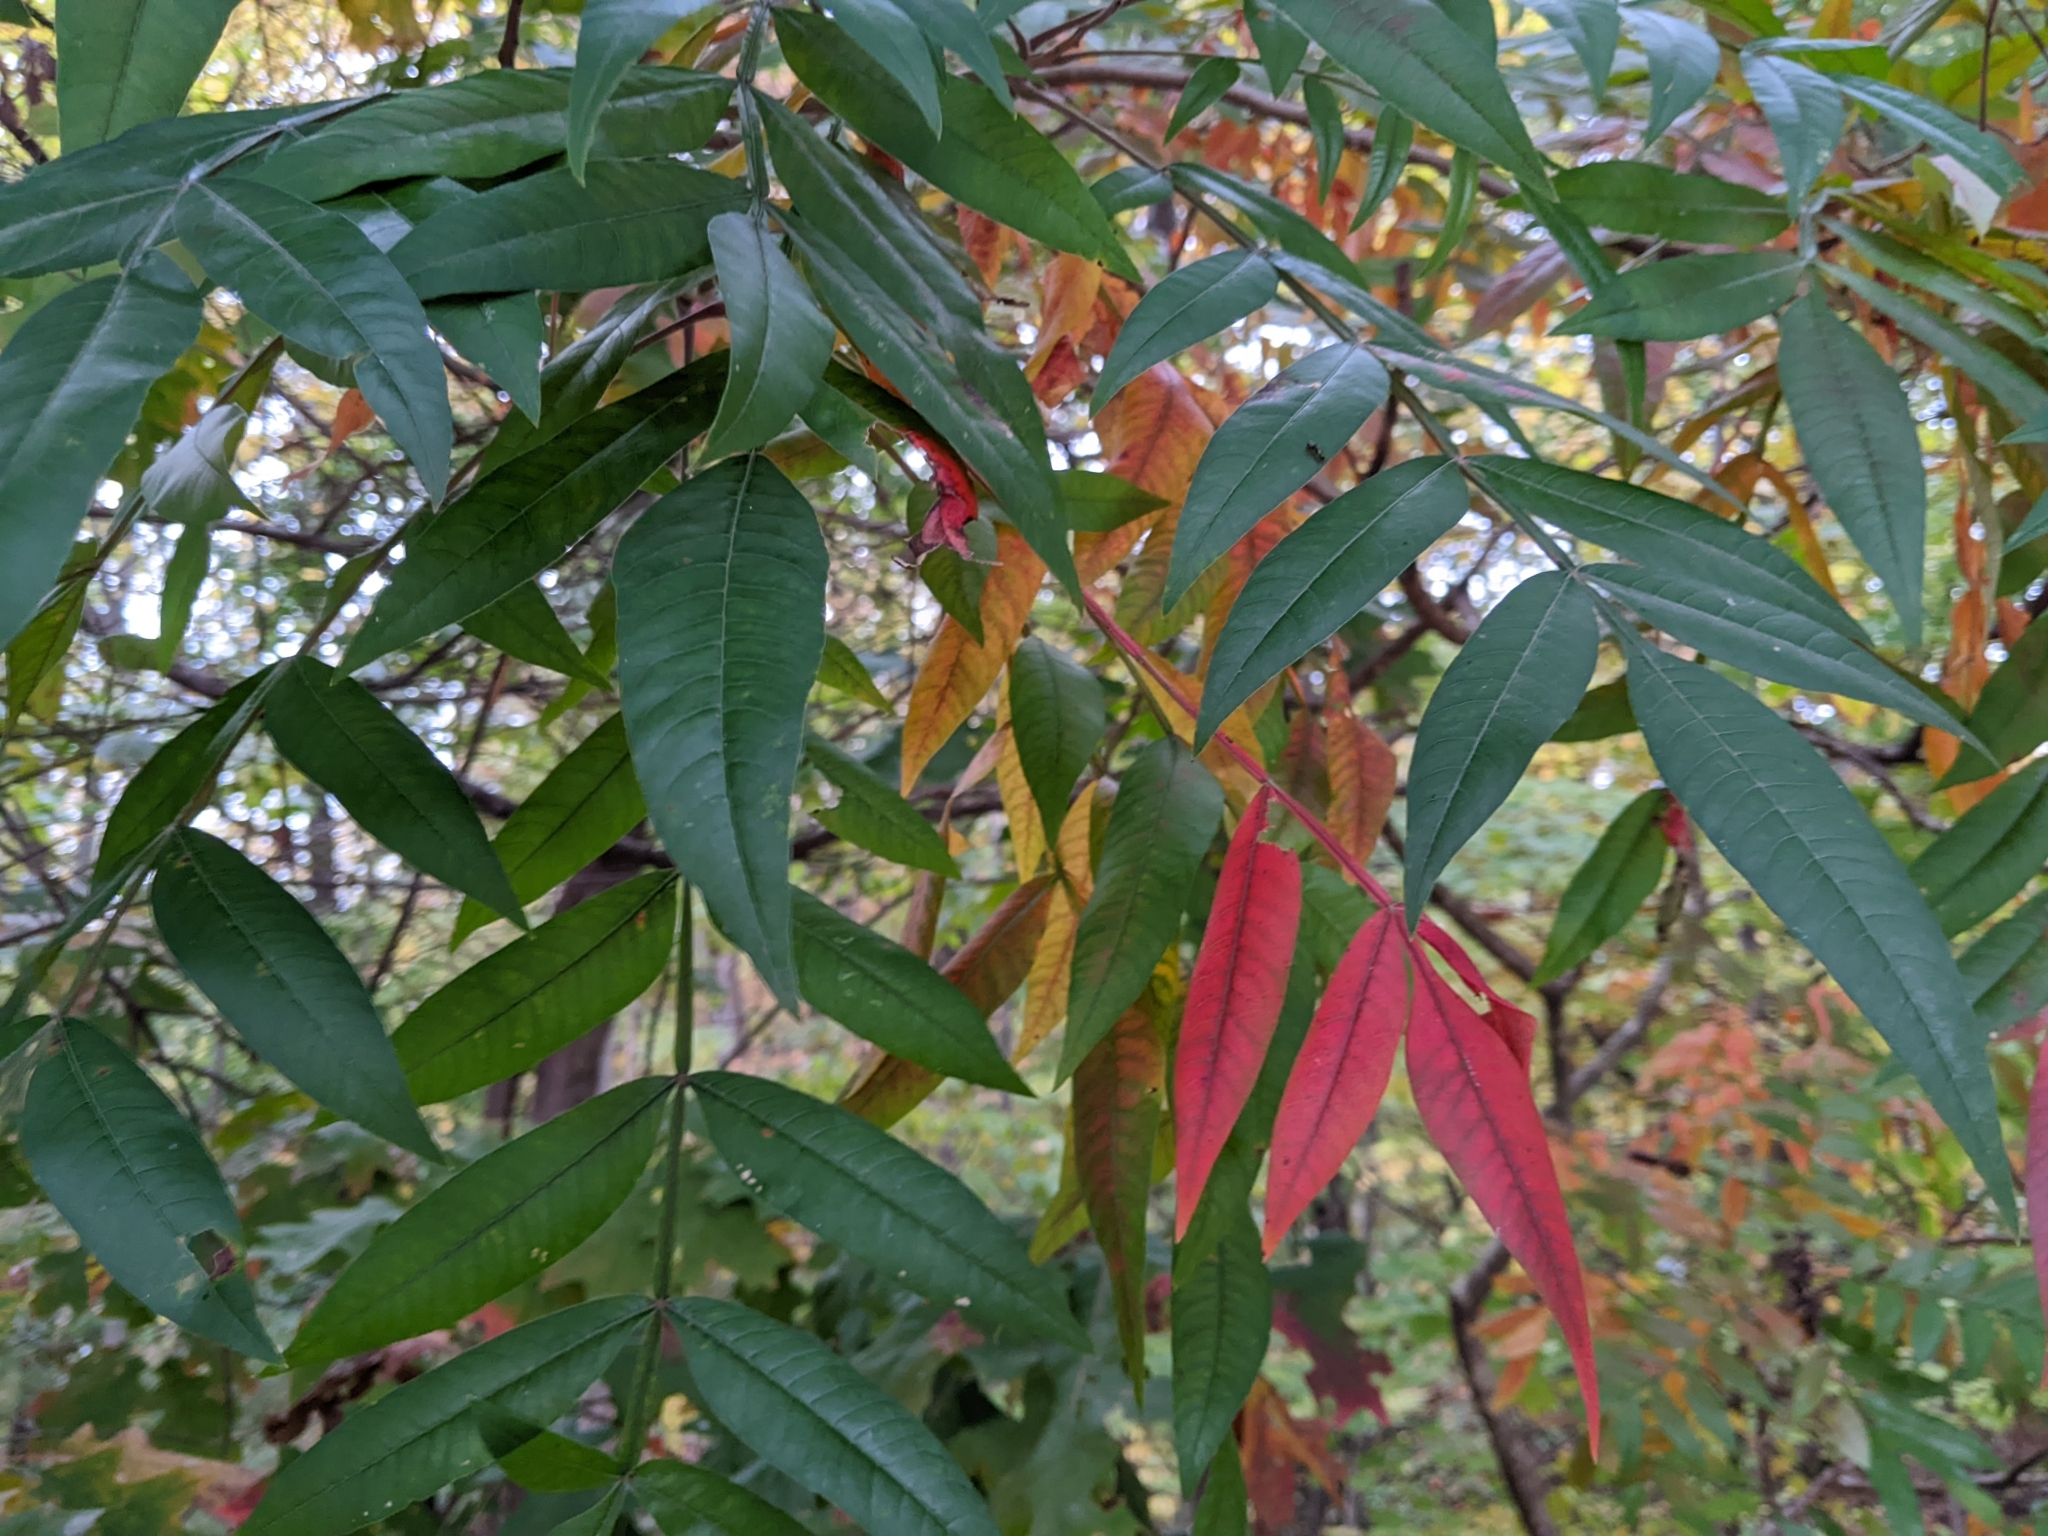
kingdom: Plantae
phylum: Tracheophyta
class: Magnoliopsida
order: Sapindales
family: Anacardiaceae
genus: Rhus
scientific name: Rhus copallina
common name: Shining sumac
